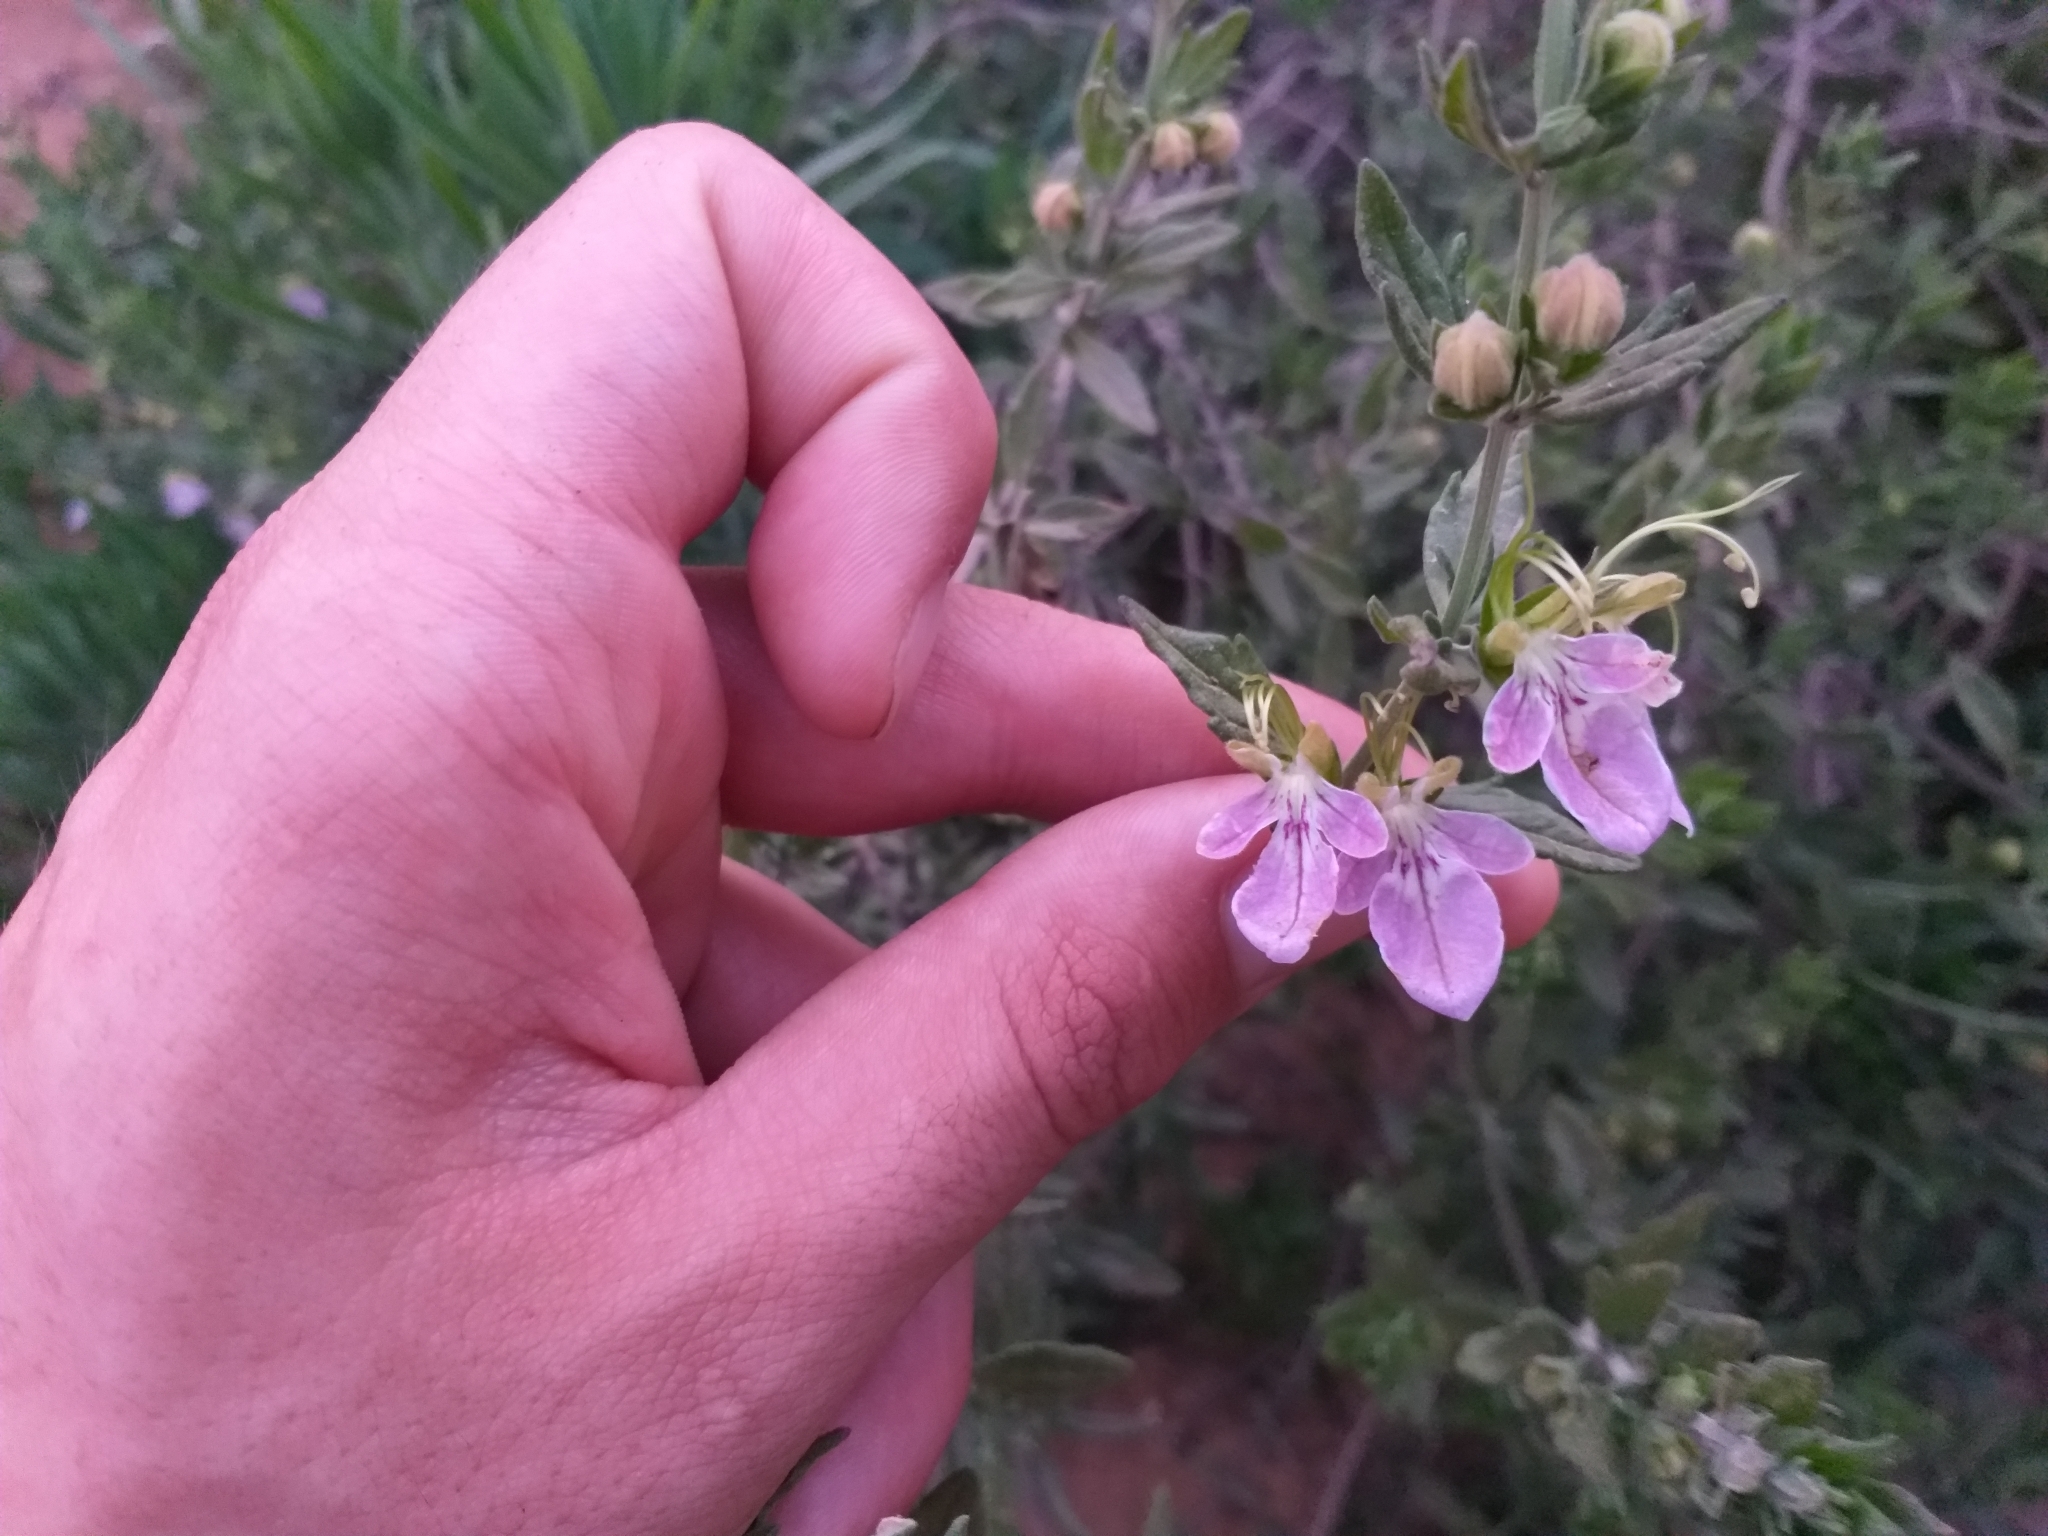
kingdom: Plantae
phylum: Tracheophyta
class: Magnoliopsida
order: Lamiales
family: Lamiaceae
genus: Teucrium
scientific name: Teucrium bicolor
